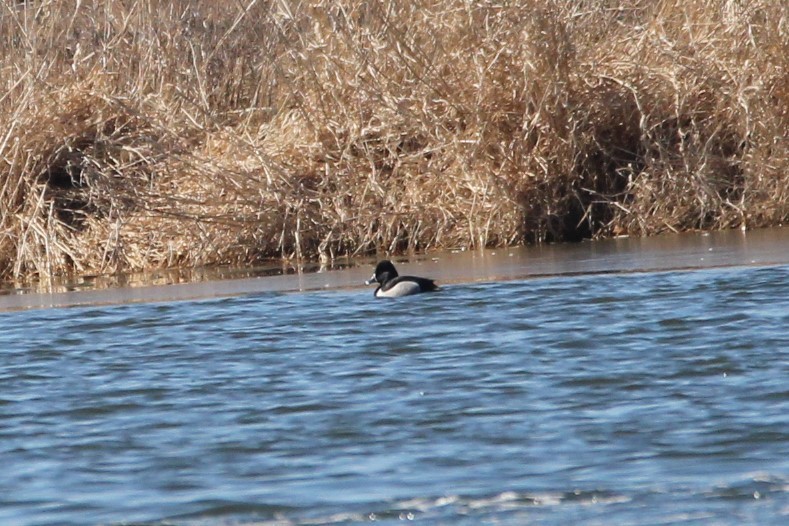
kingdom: Animalia
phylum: Chordata
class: Aves
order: Anseriformes
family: Anatidae
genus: Aythya
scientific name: Aythya collaris
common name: Ring-necked duck
